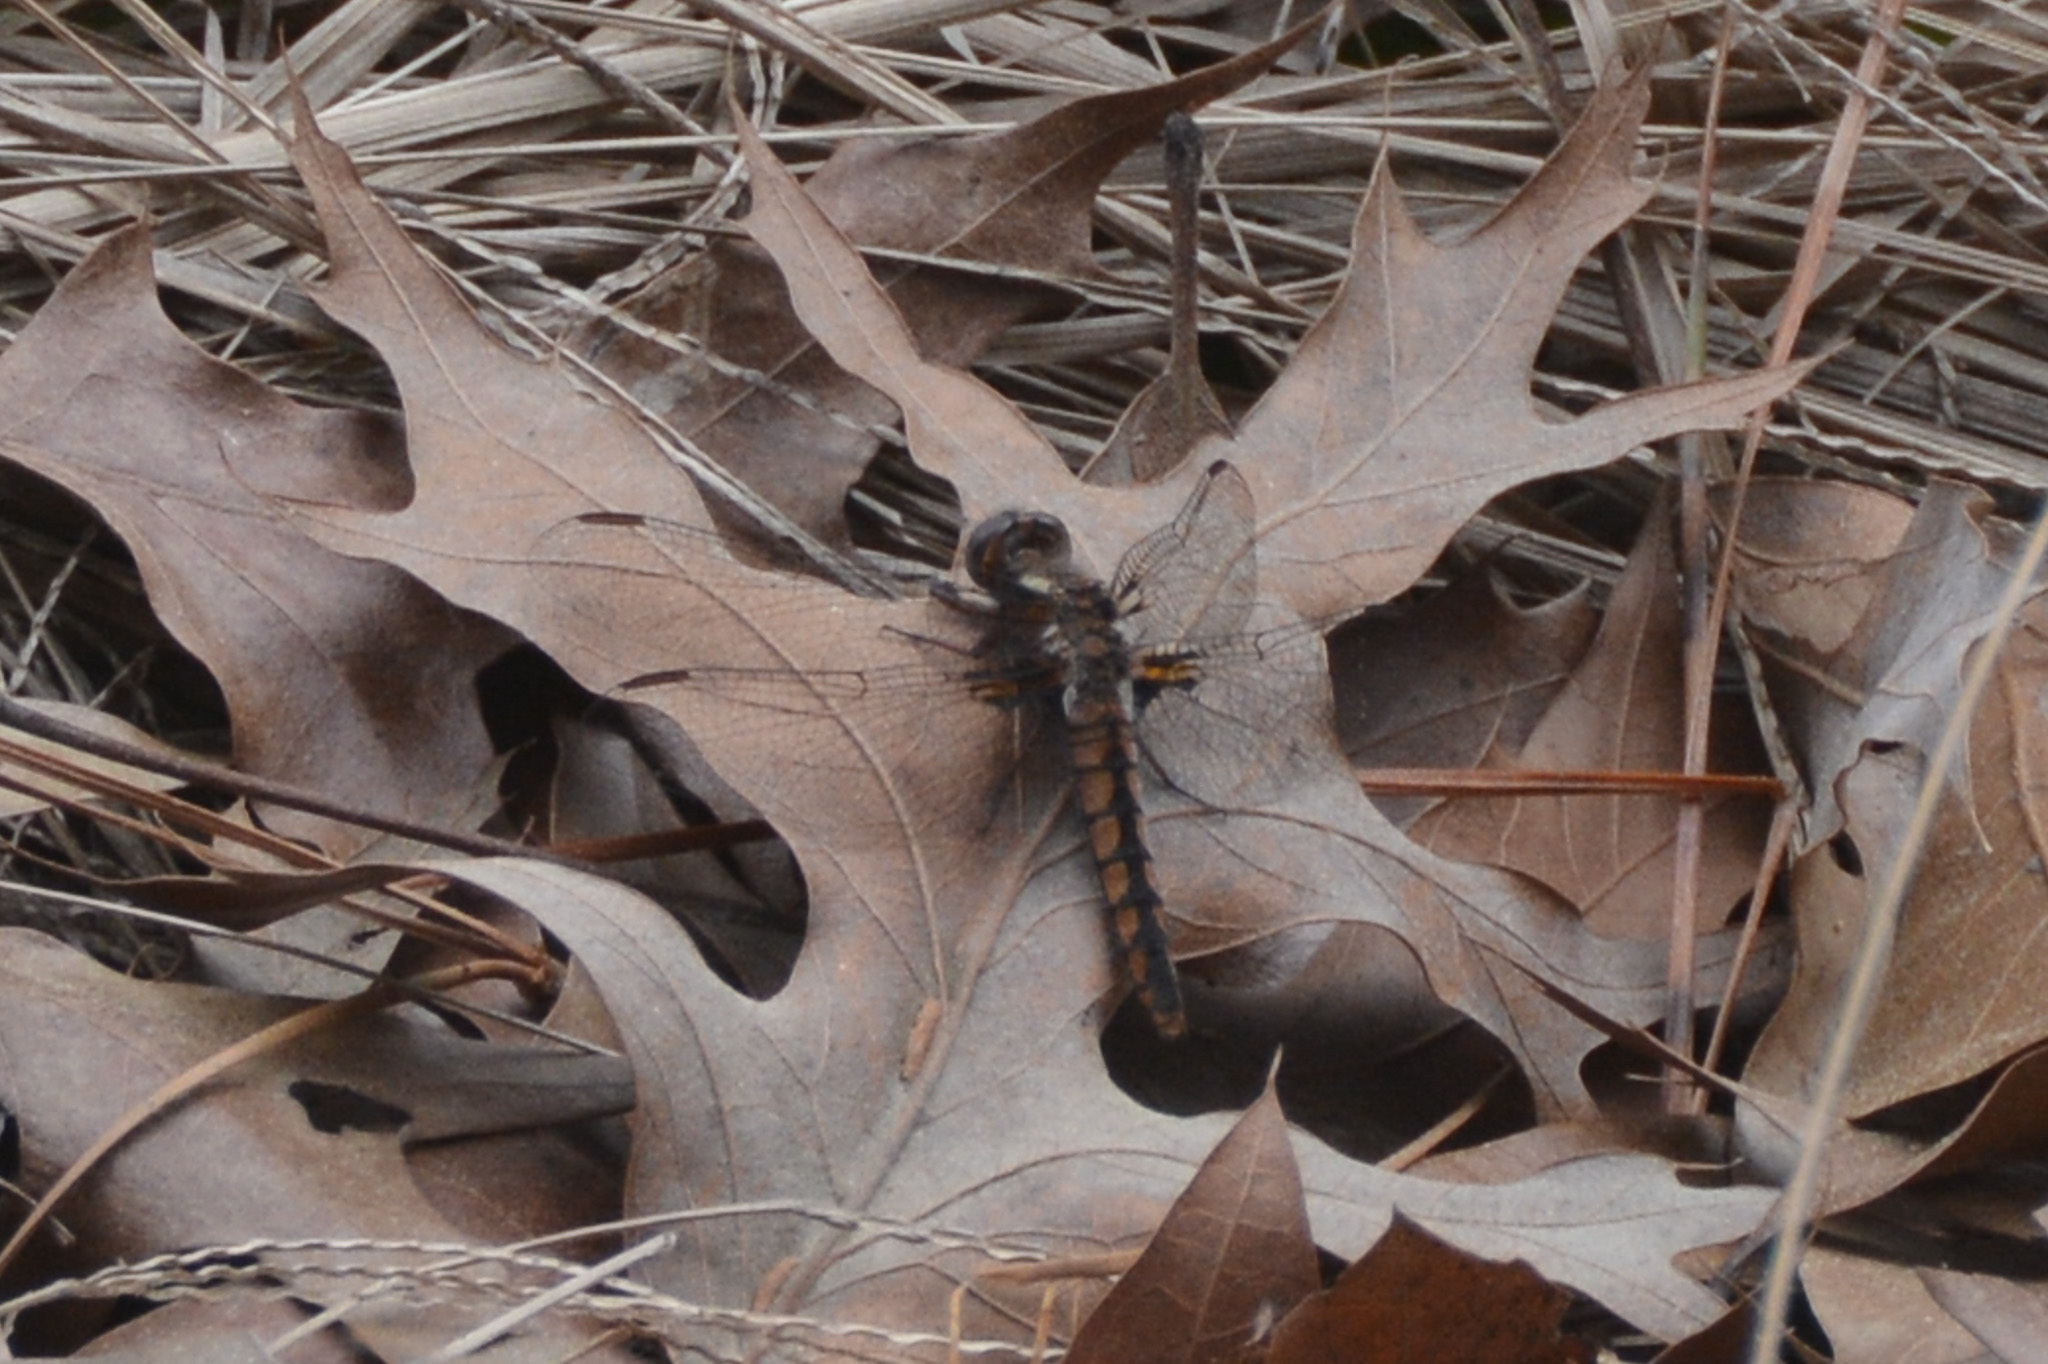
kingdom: Animalia
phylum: Arthropoda
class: Insecta
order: Odonata
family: Libellulidae
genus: Ladona
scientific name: Ladona deplanata
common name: Blue corporal
